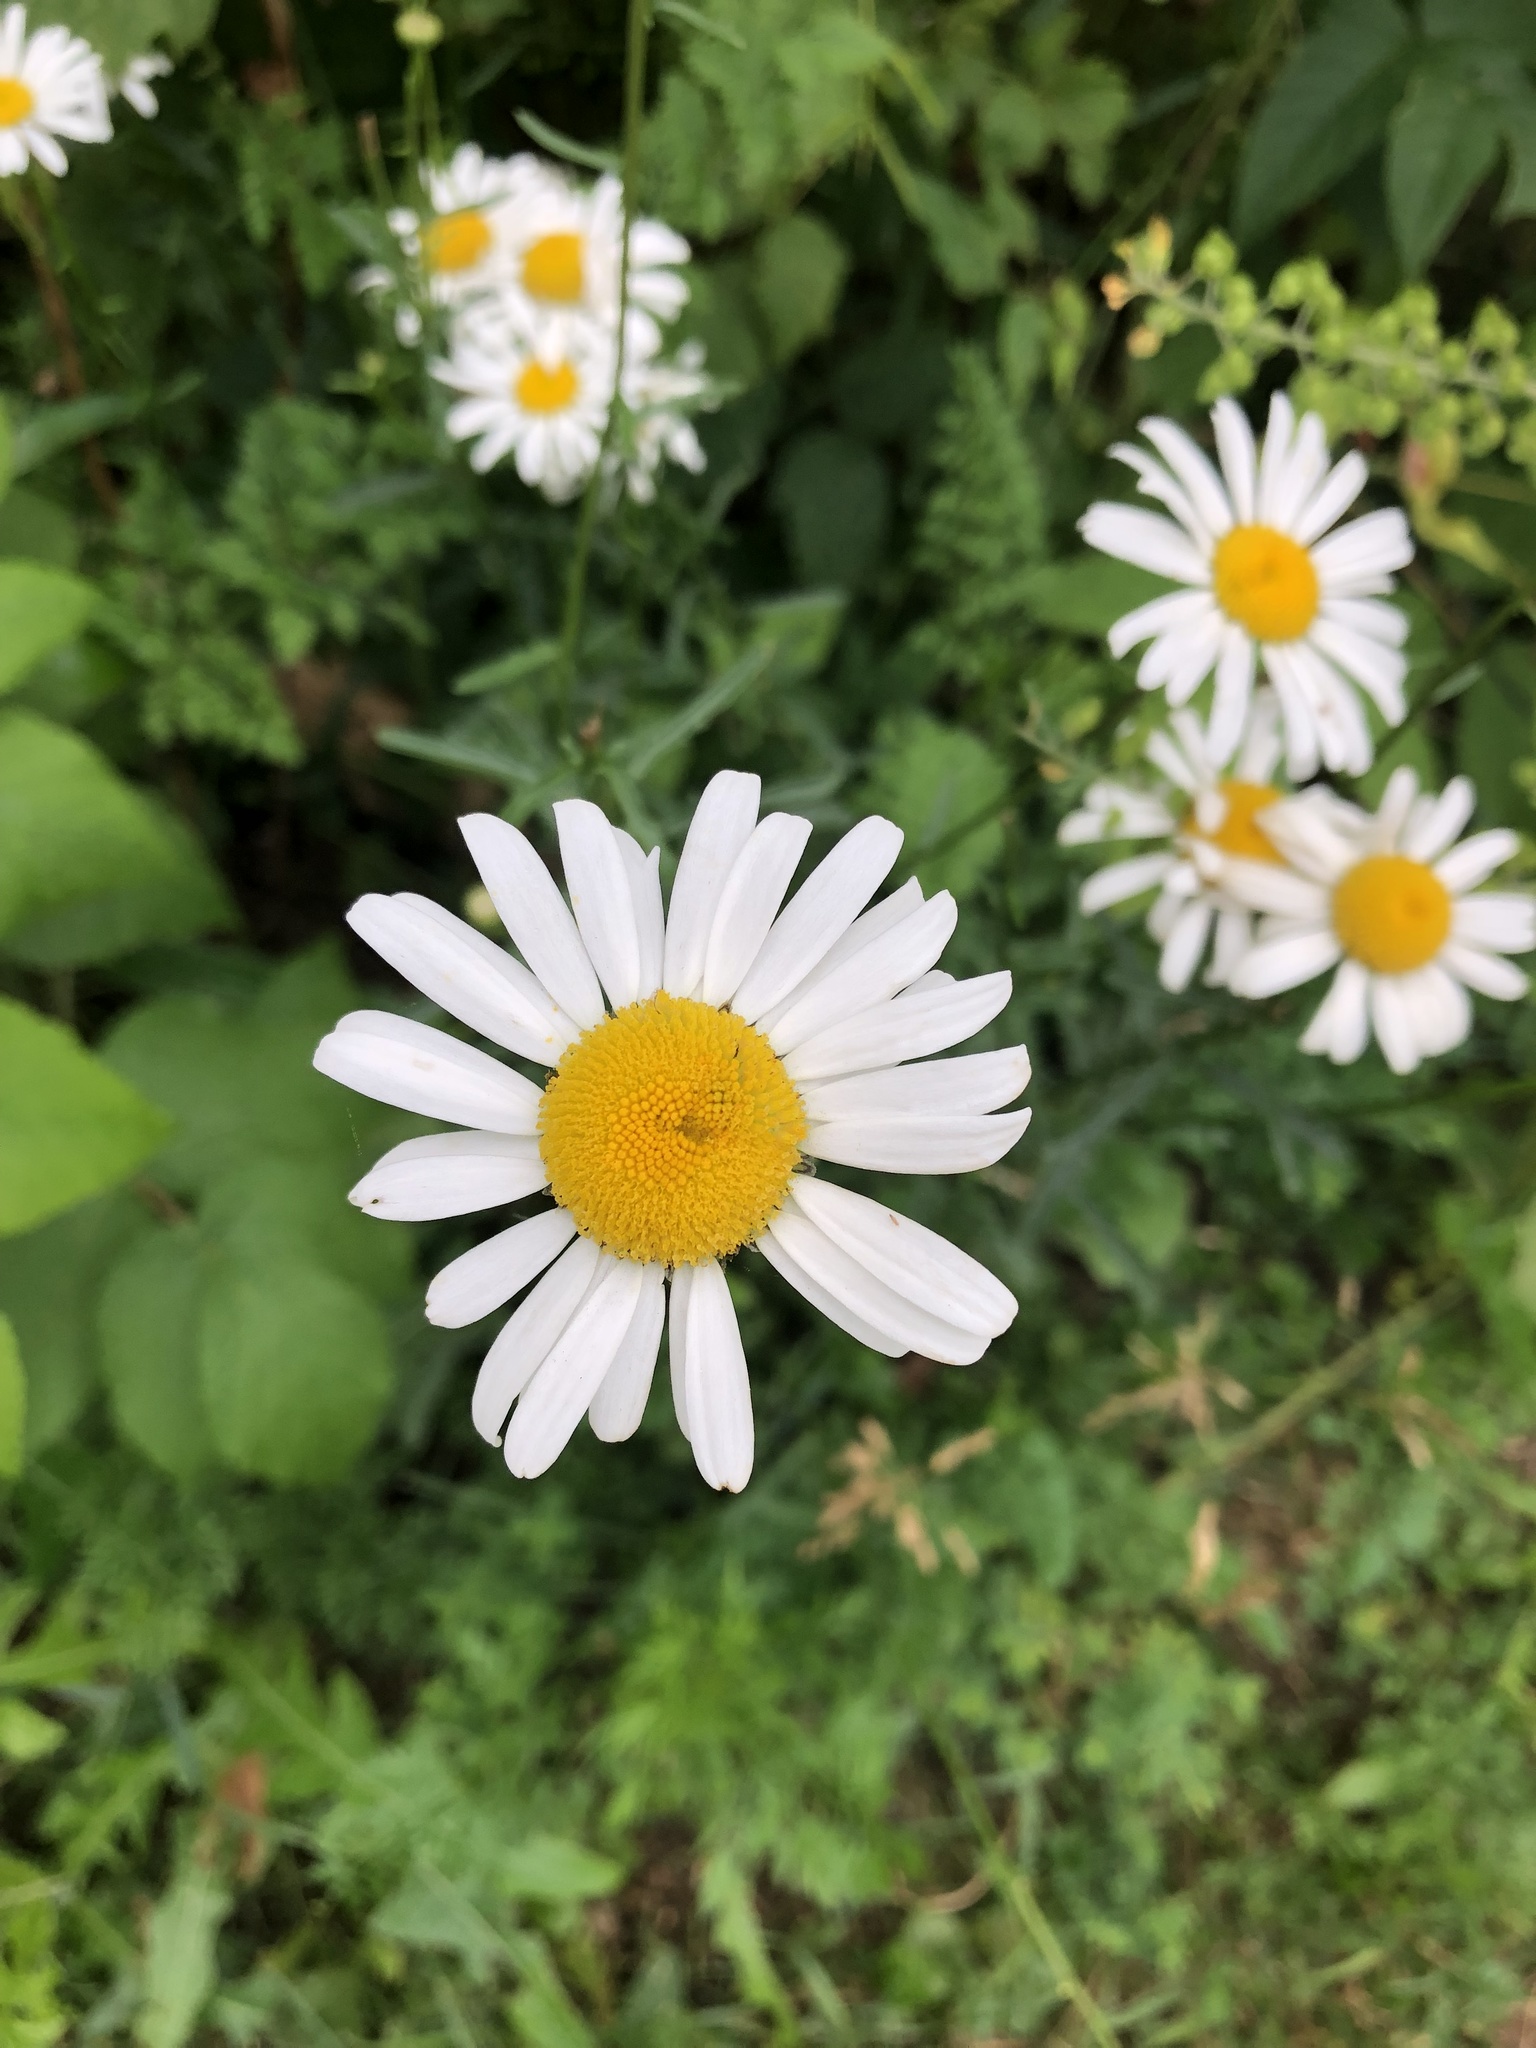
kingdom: Plantae
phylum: Tracheophyta
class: Magnoliopsida
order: Asterales
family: Asteraceae
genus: Leucanthemum
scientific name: Leucanthemum vulgare
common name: Oxeye daisy
